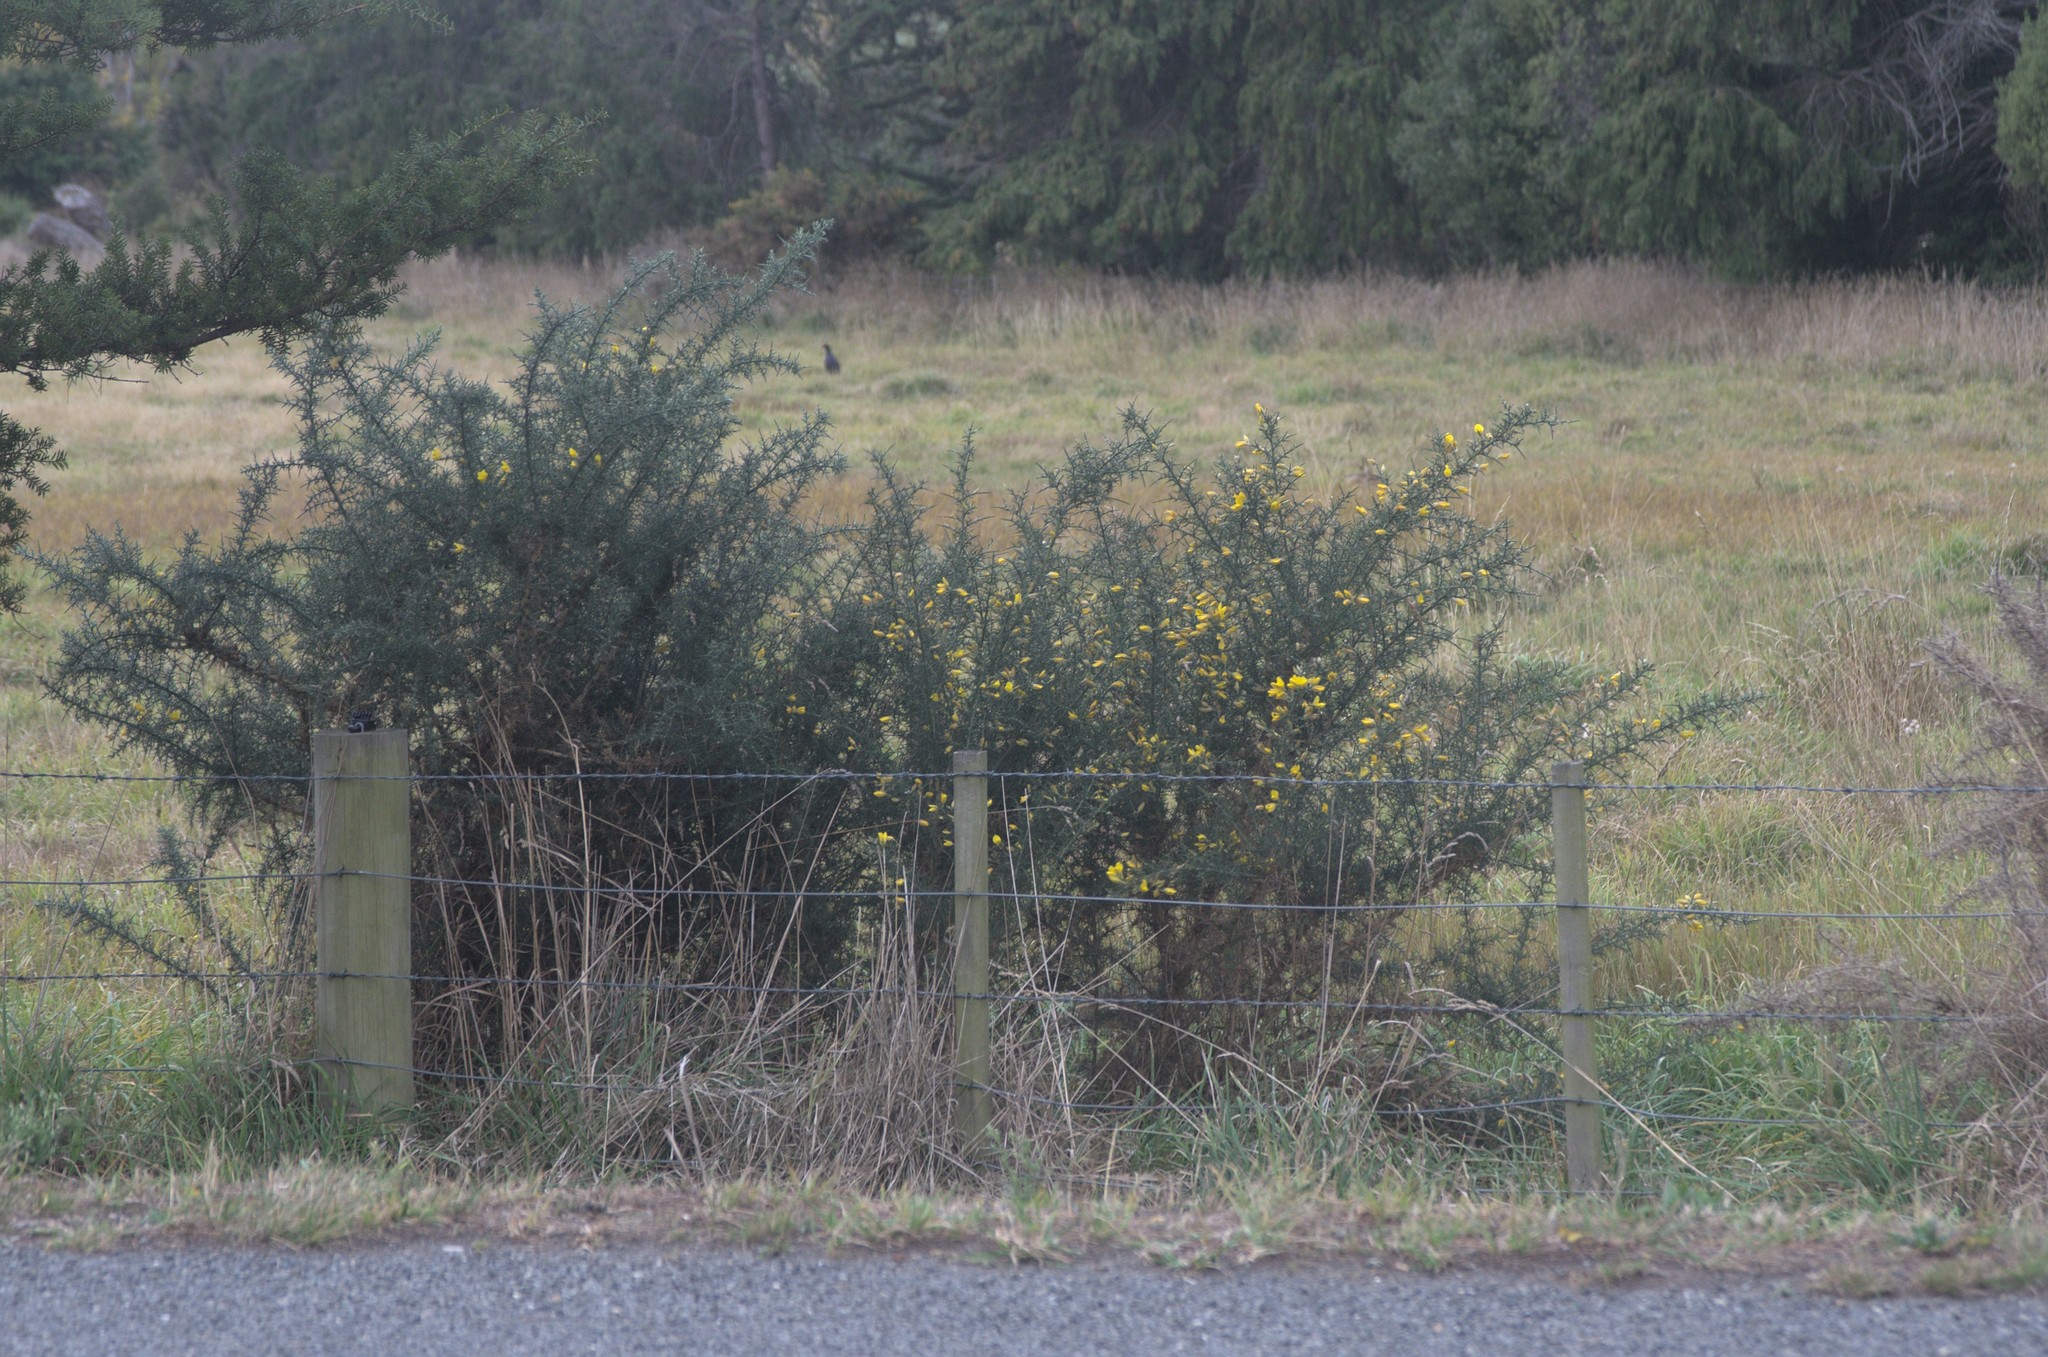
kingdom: Plantae
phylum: Tracheophyta
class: Magnoliopsida
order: Fabales
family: Fabaceae
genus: Ulex
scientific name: Ulex europaeus
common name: Common gorse
